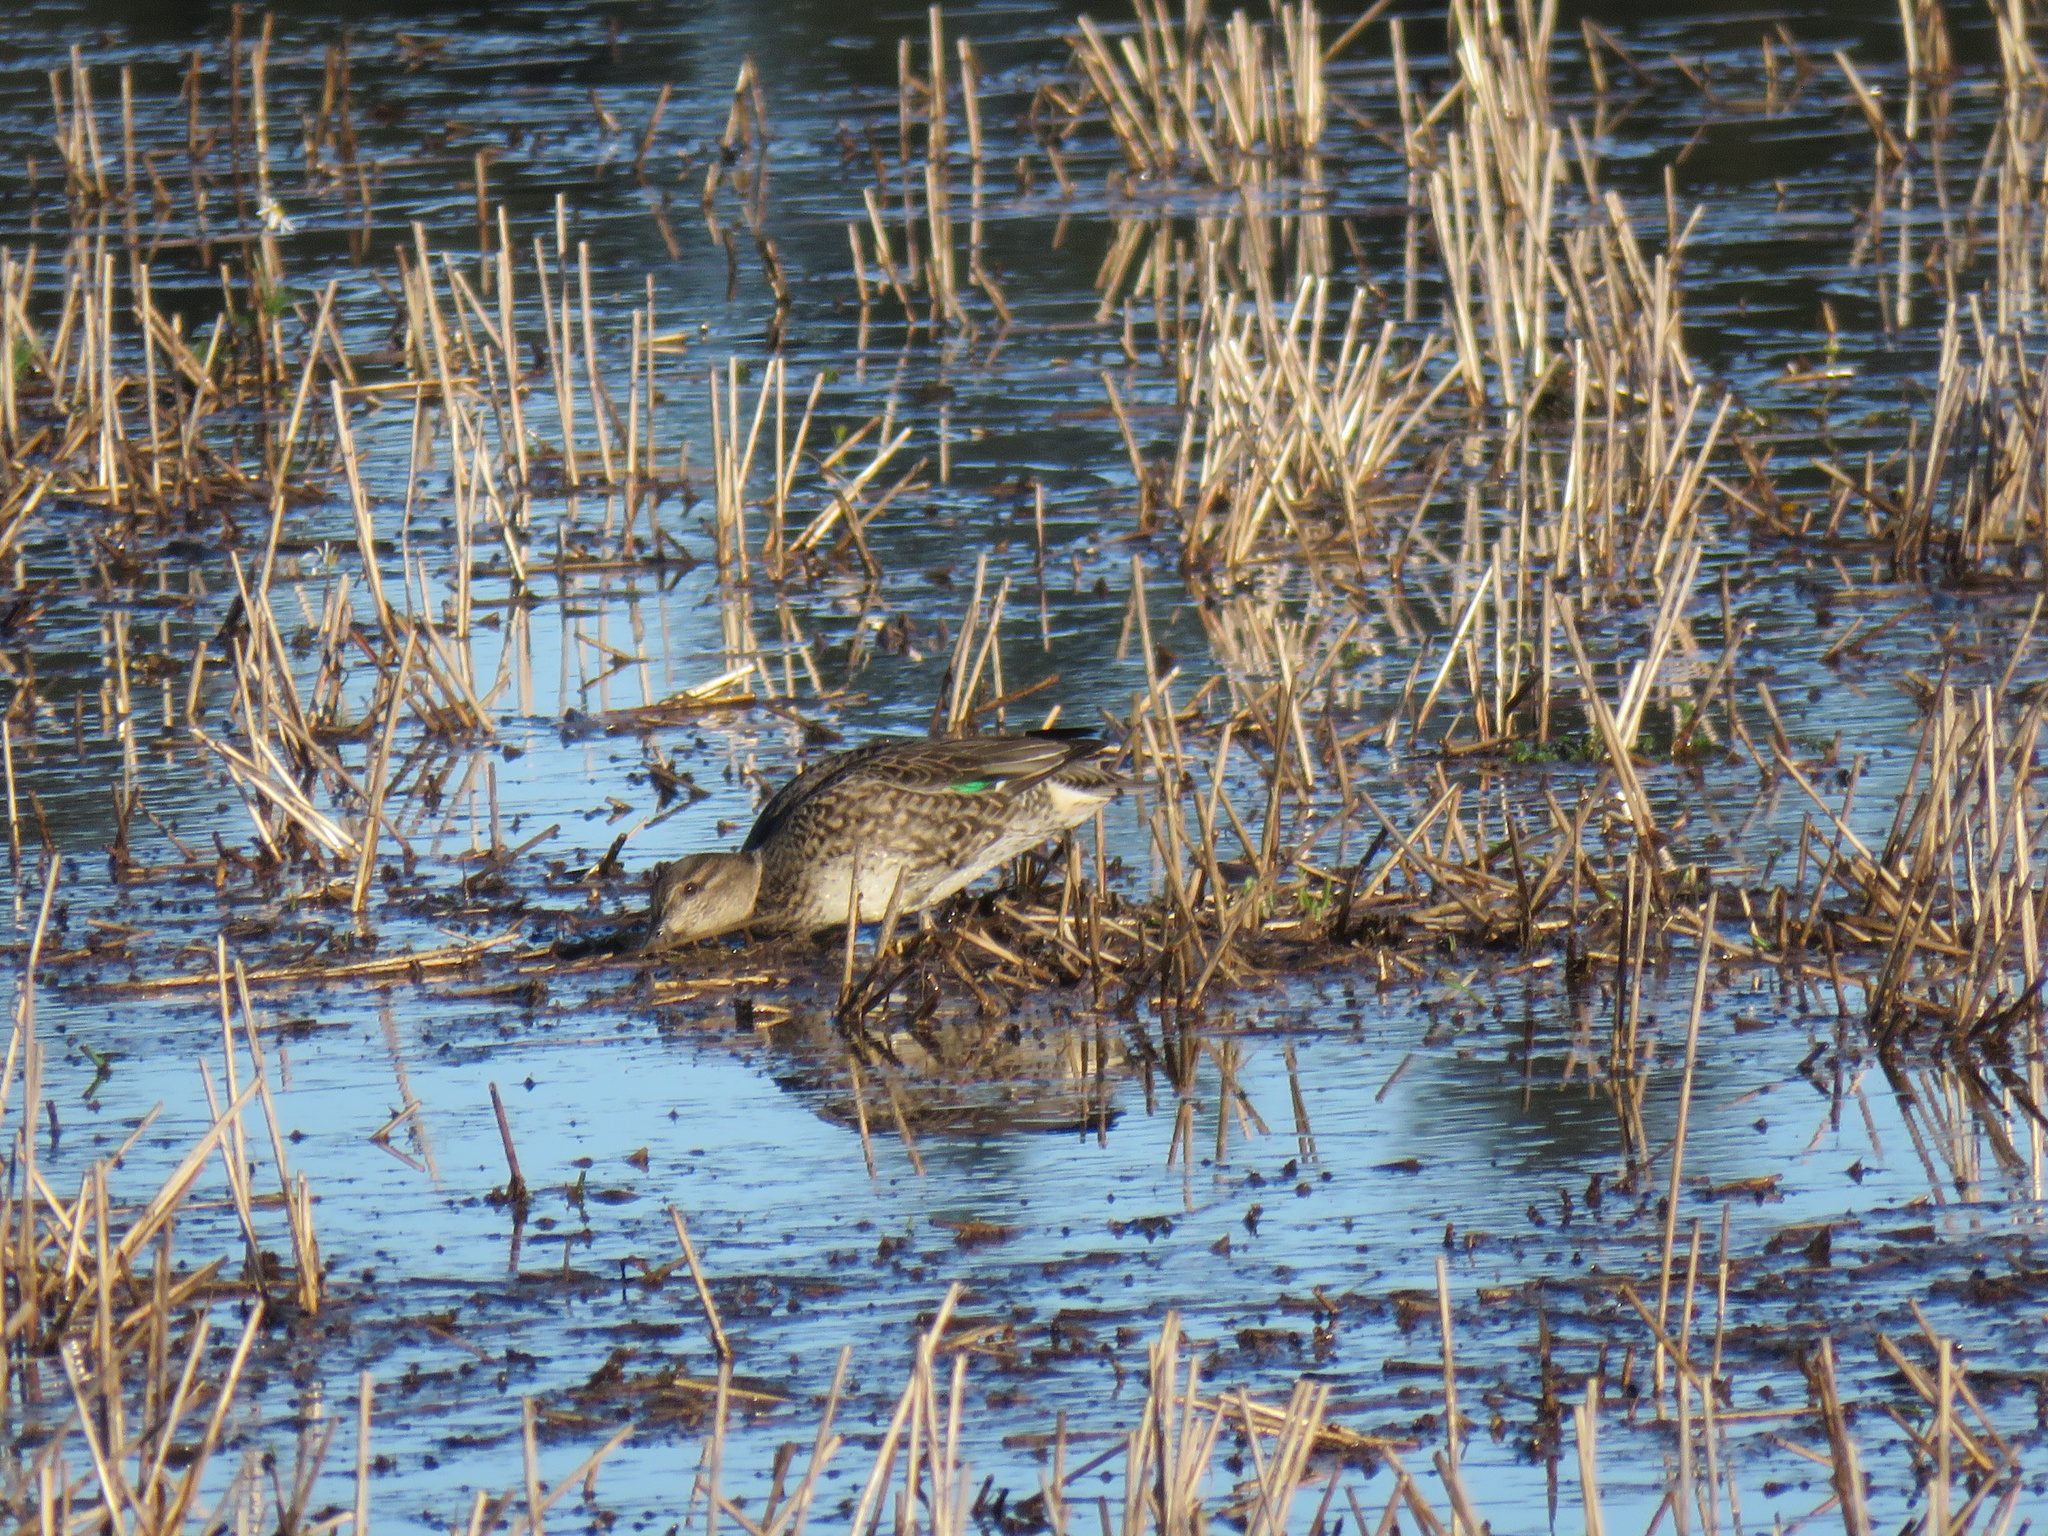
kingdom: Animalia
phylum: Chordata
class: Aves
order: Anseriformes
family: Anatidae
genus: Anas
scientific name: Anas crecca
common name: Eurasian teal
